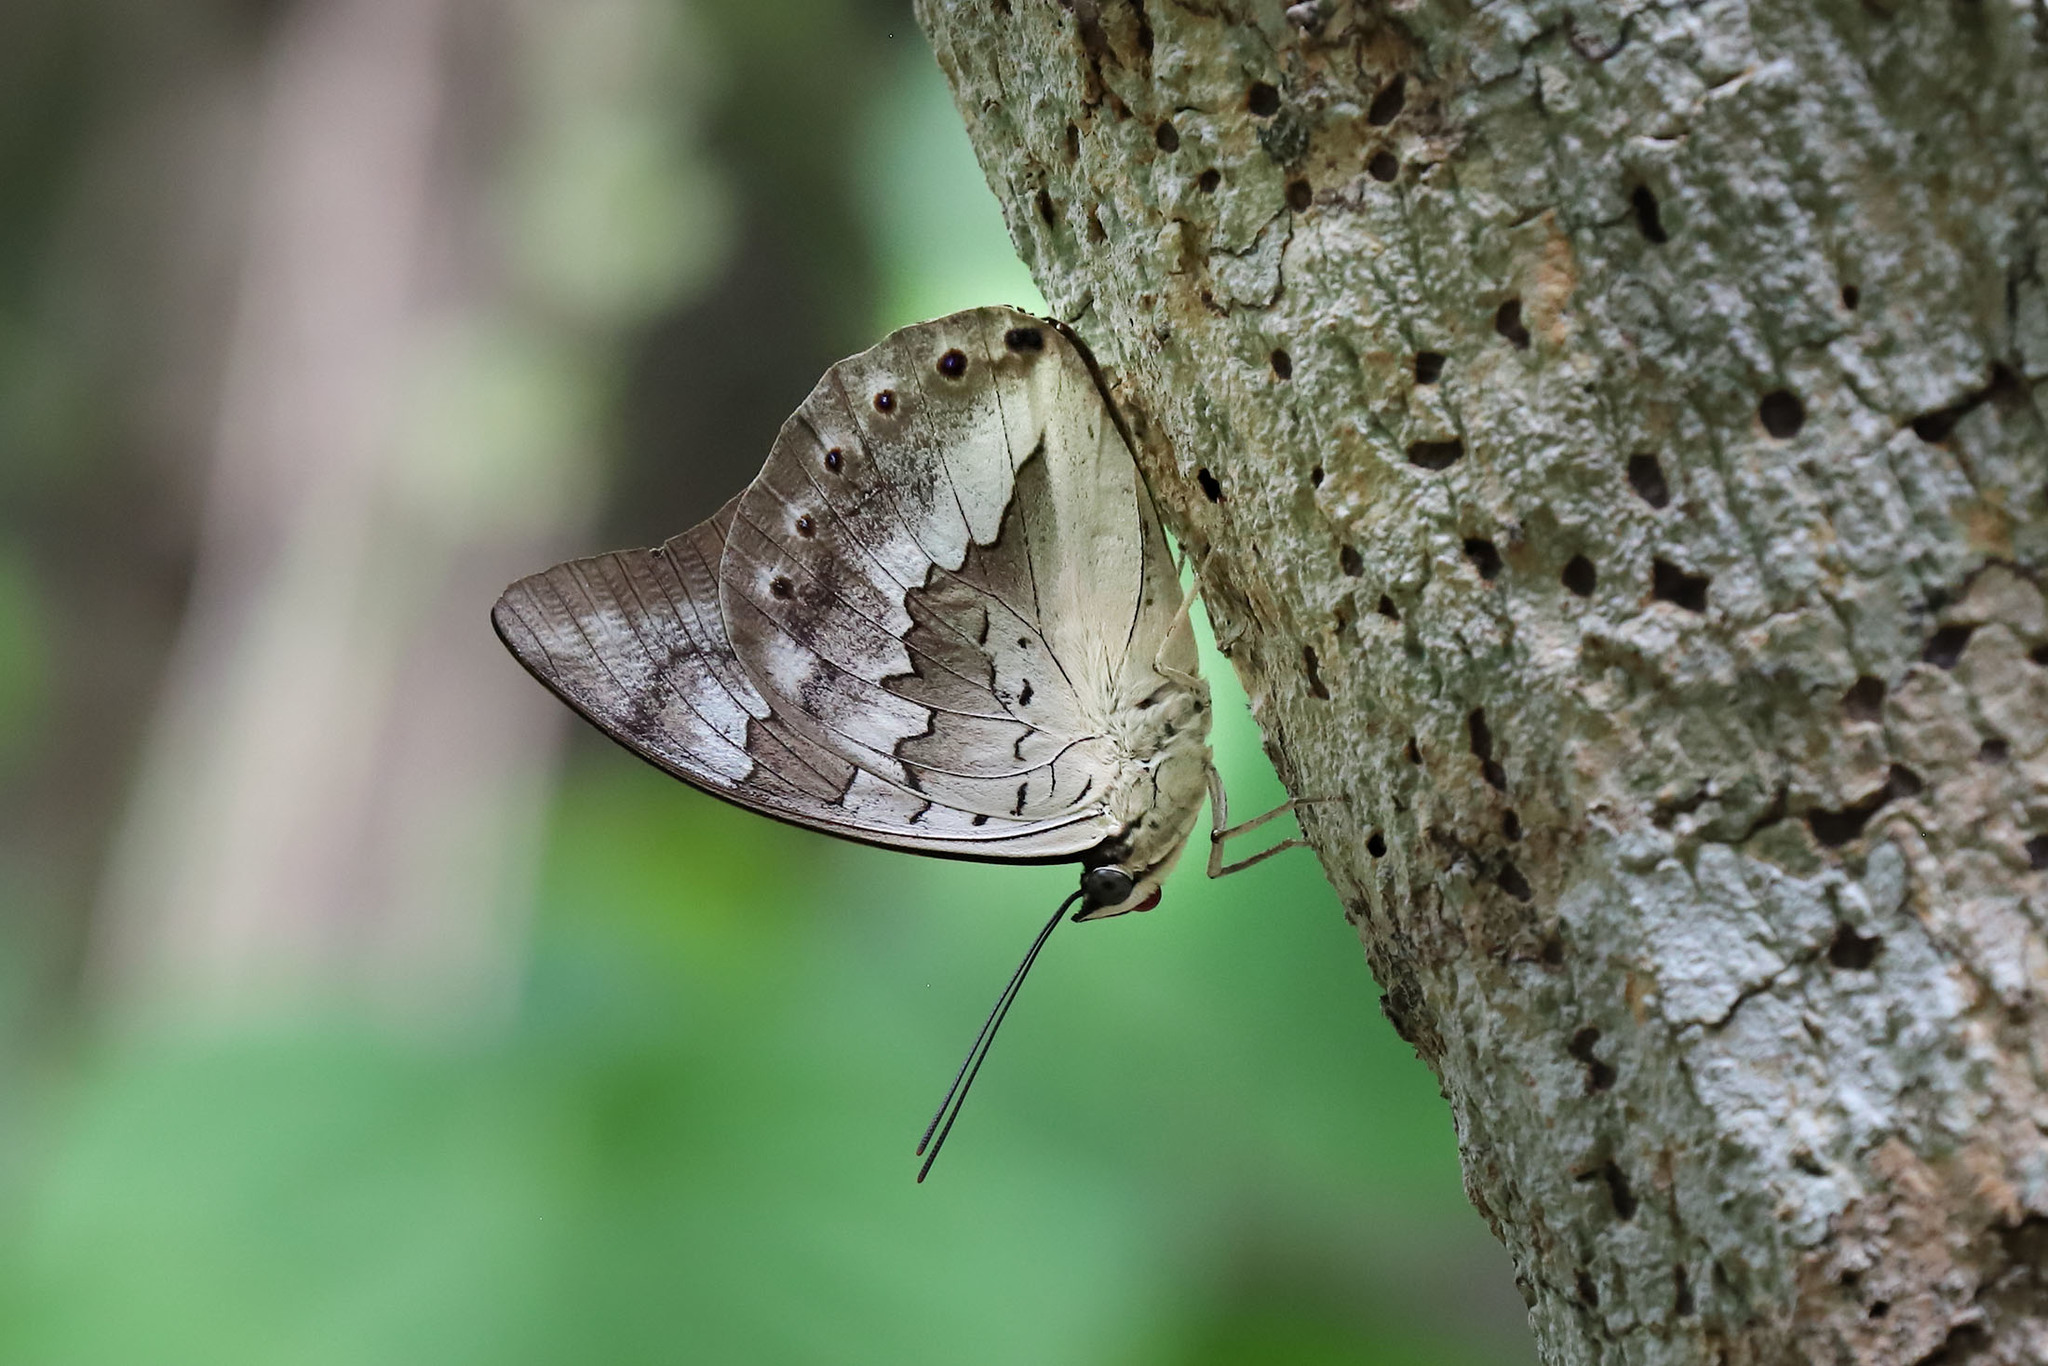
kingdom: Animalia
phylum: Arthropoda
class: Insecta
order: Lepidoptera
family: Nymphalidae
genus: Prepona
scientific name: Prepona demophoon
